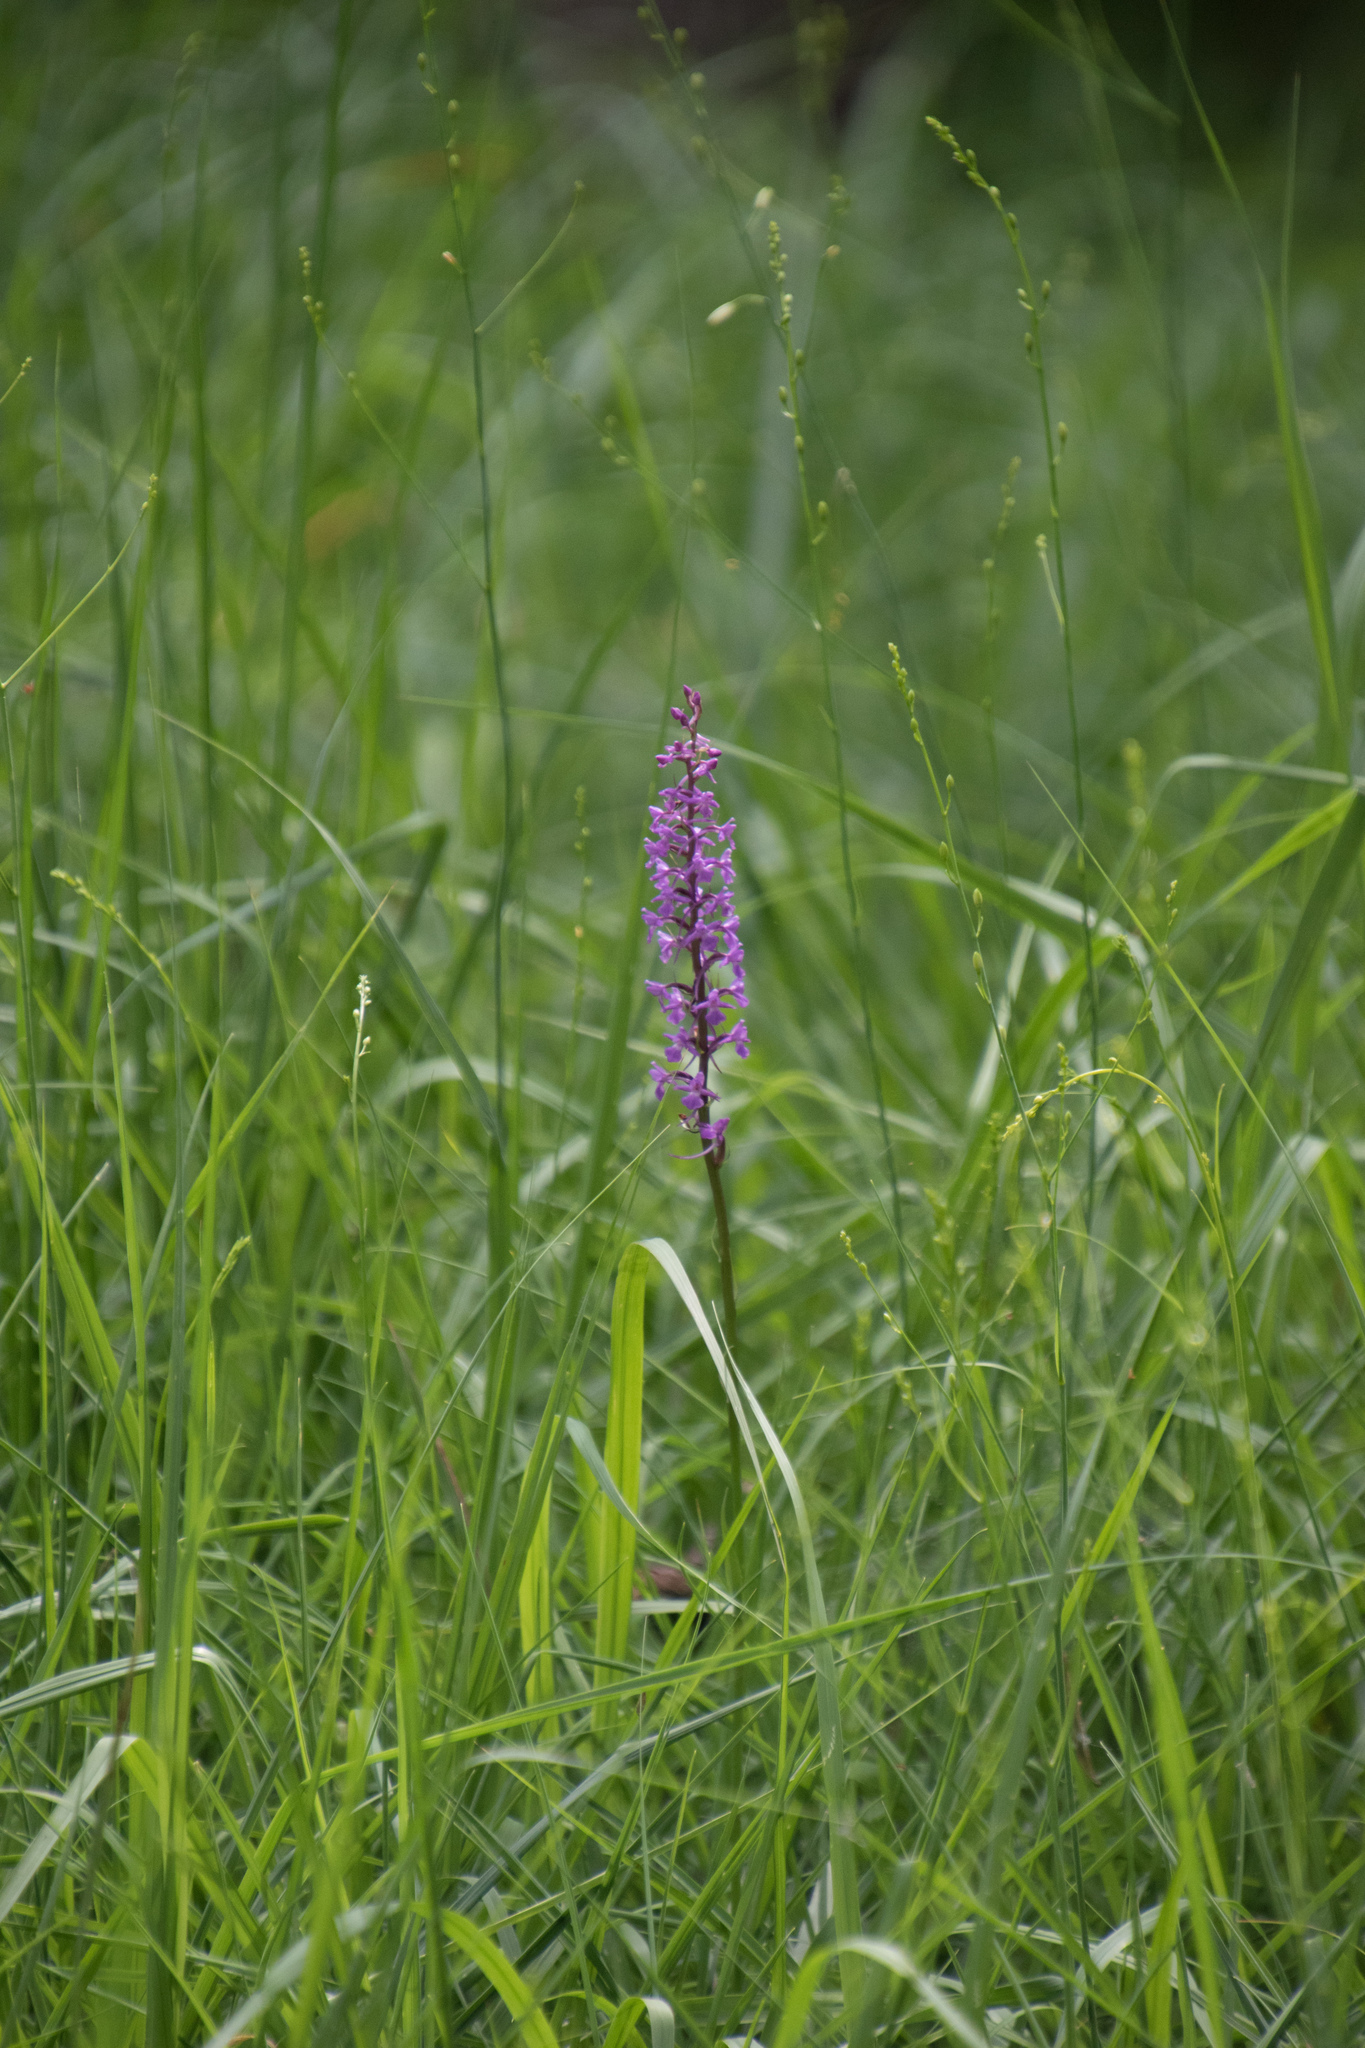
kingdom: Plantae
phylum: Tracheophyta
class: Liliopsida
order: Asparagales
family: Orchidaceae
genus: Gymnadenia
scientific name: Gymnadenia conopsea
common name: Fragrant orchid
